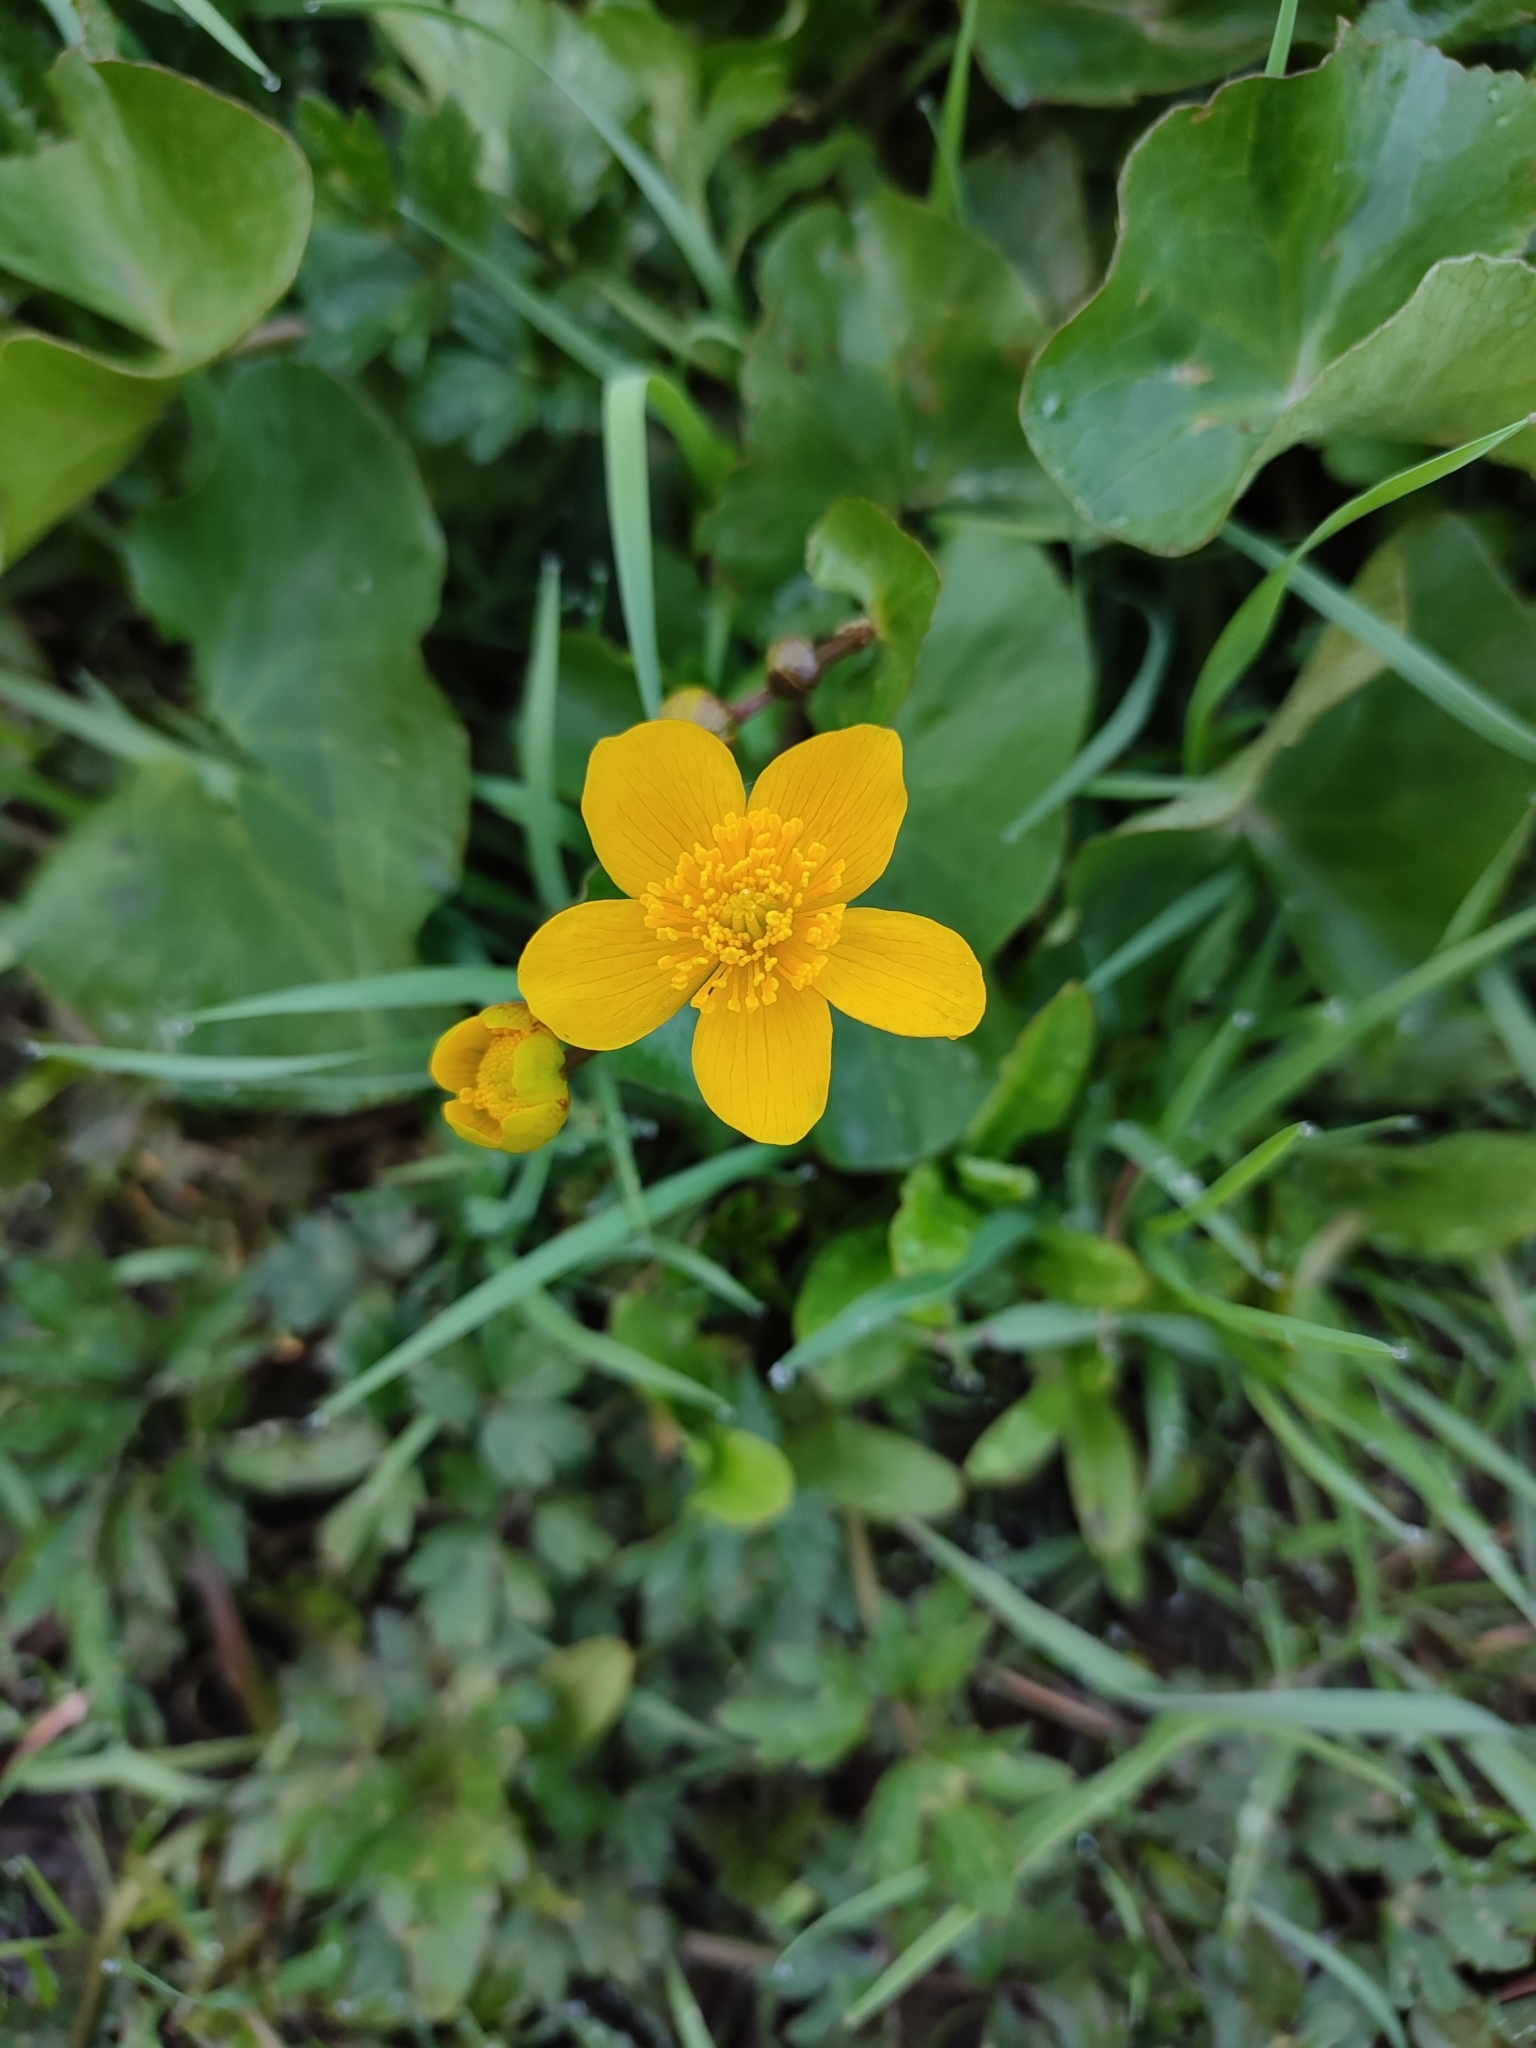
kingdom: Plantae
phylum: Tracheophyta
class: Magnoliopsida
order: Ranunculales
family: Ranunculaceae
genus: Caltha
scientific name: Caltha palustris
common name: Marsh marigold
